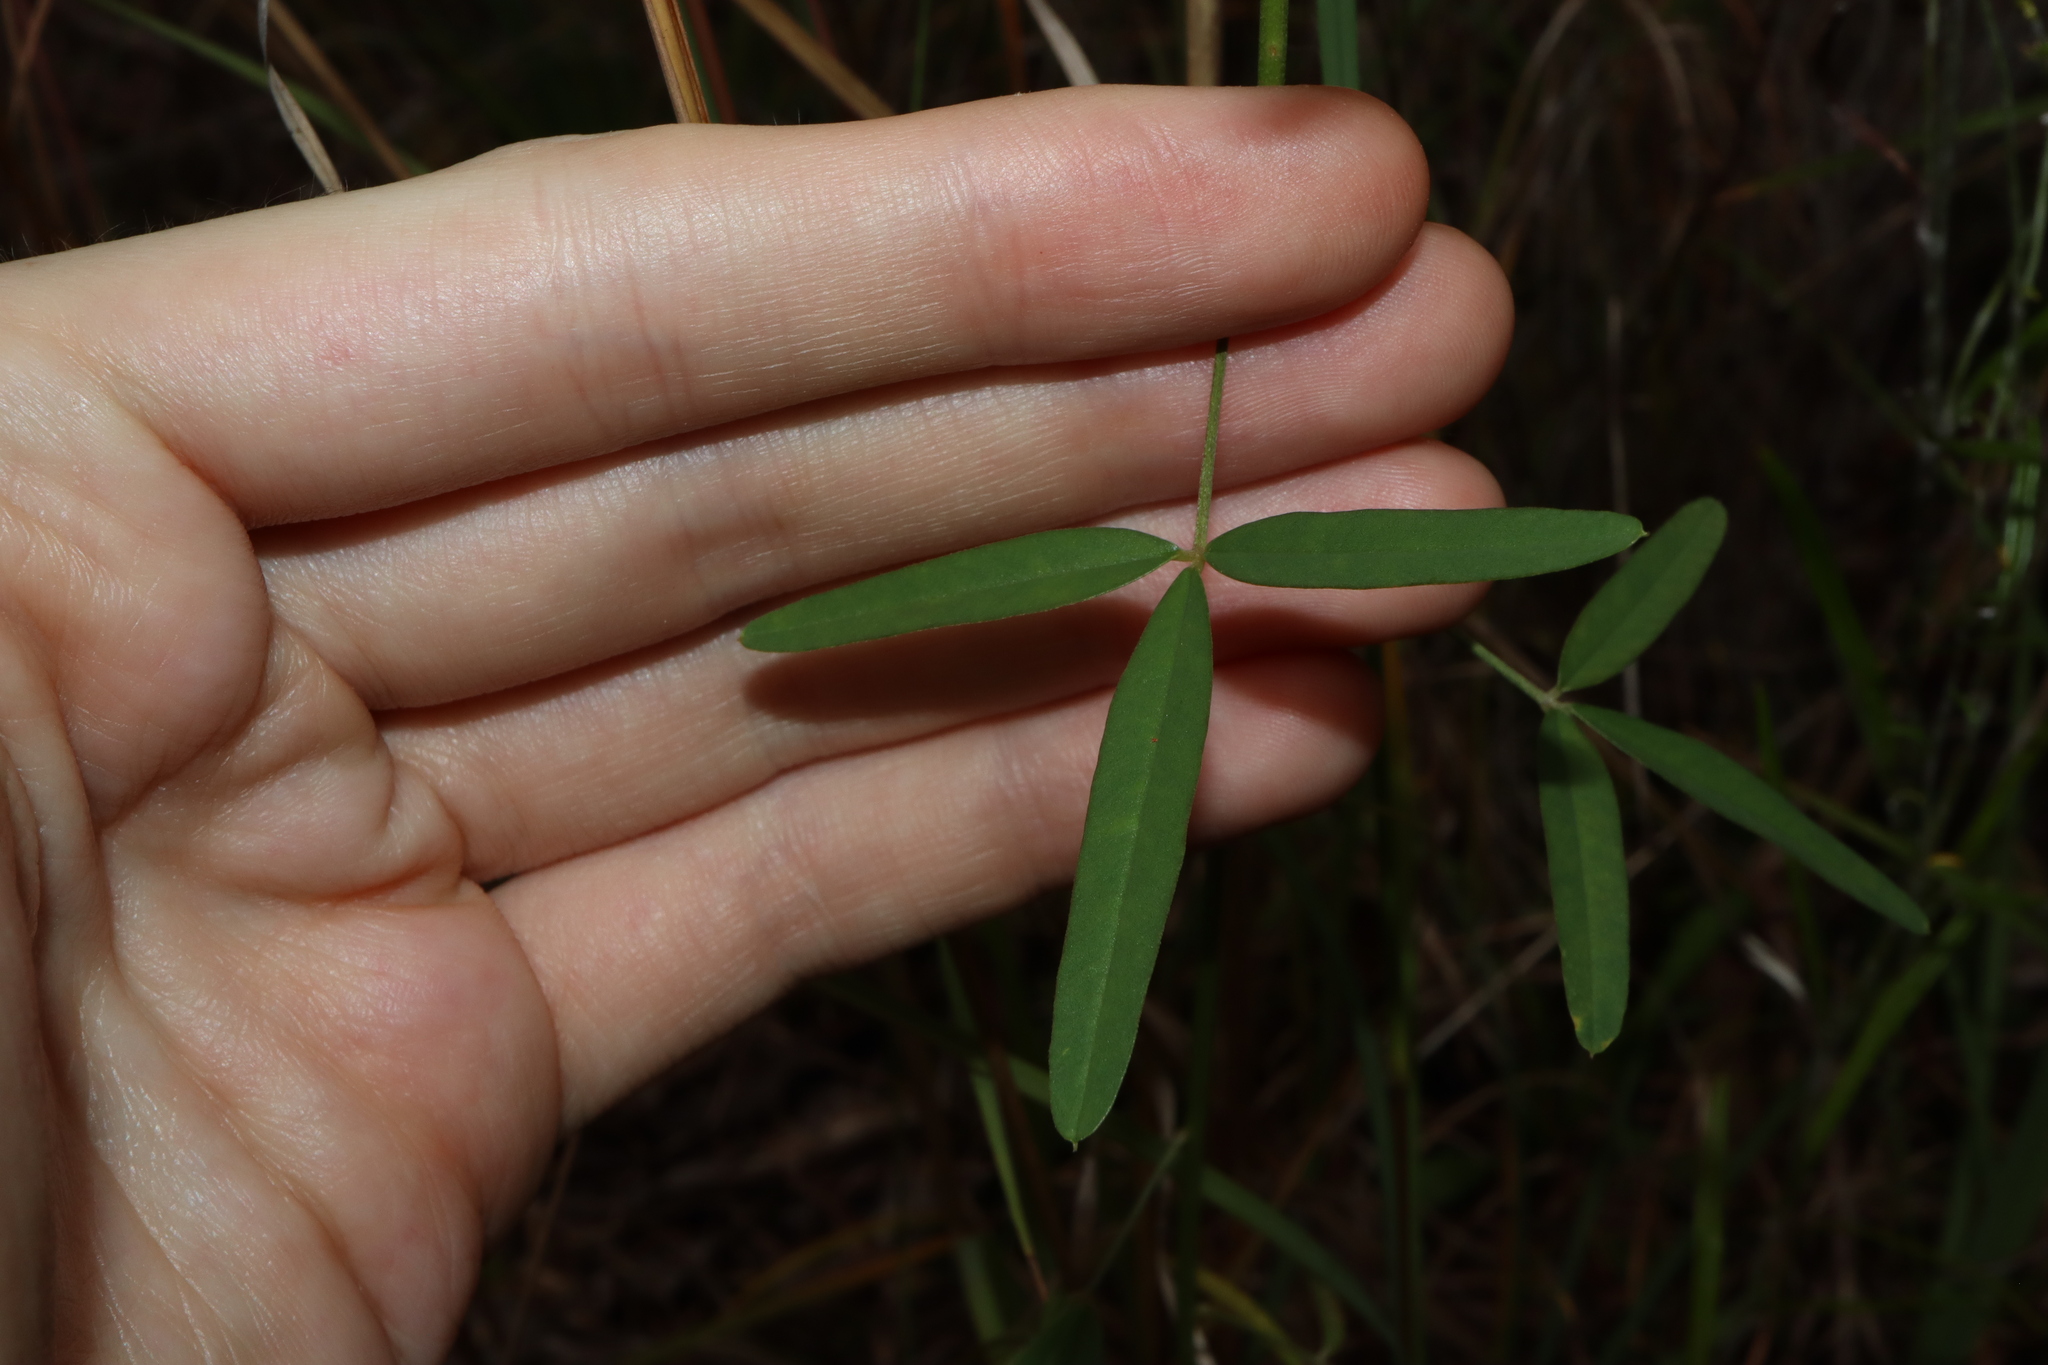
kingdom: Plantae
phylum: Tracheophyta
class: Magnoliopsida
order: Fabales
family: Fabaceae
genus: Crotalaria
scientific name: Crotalaria lanceolata
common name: Lanceleaf rattlebox
